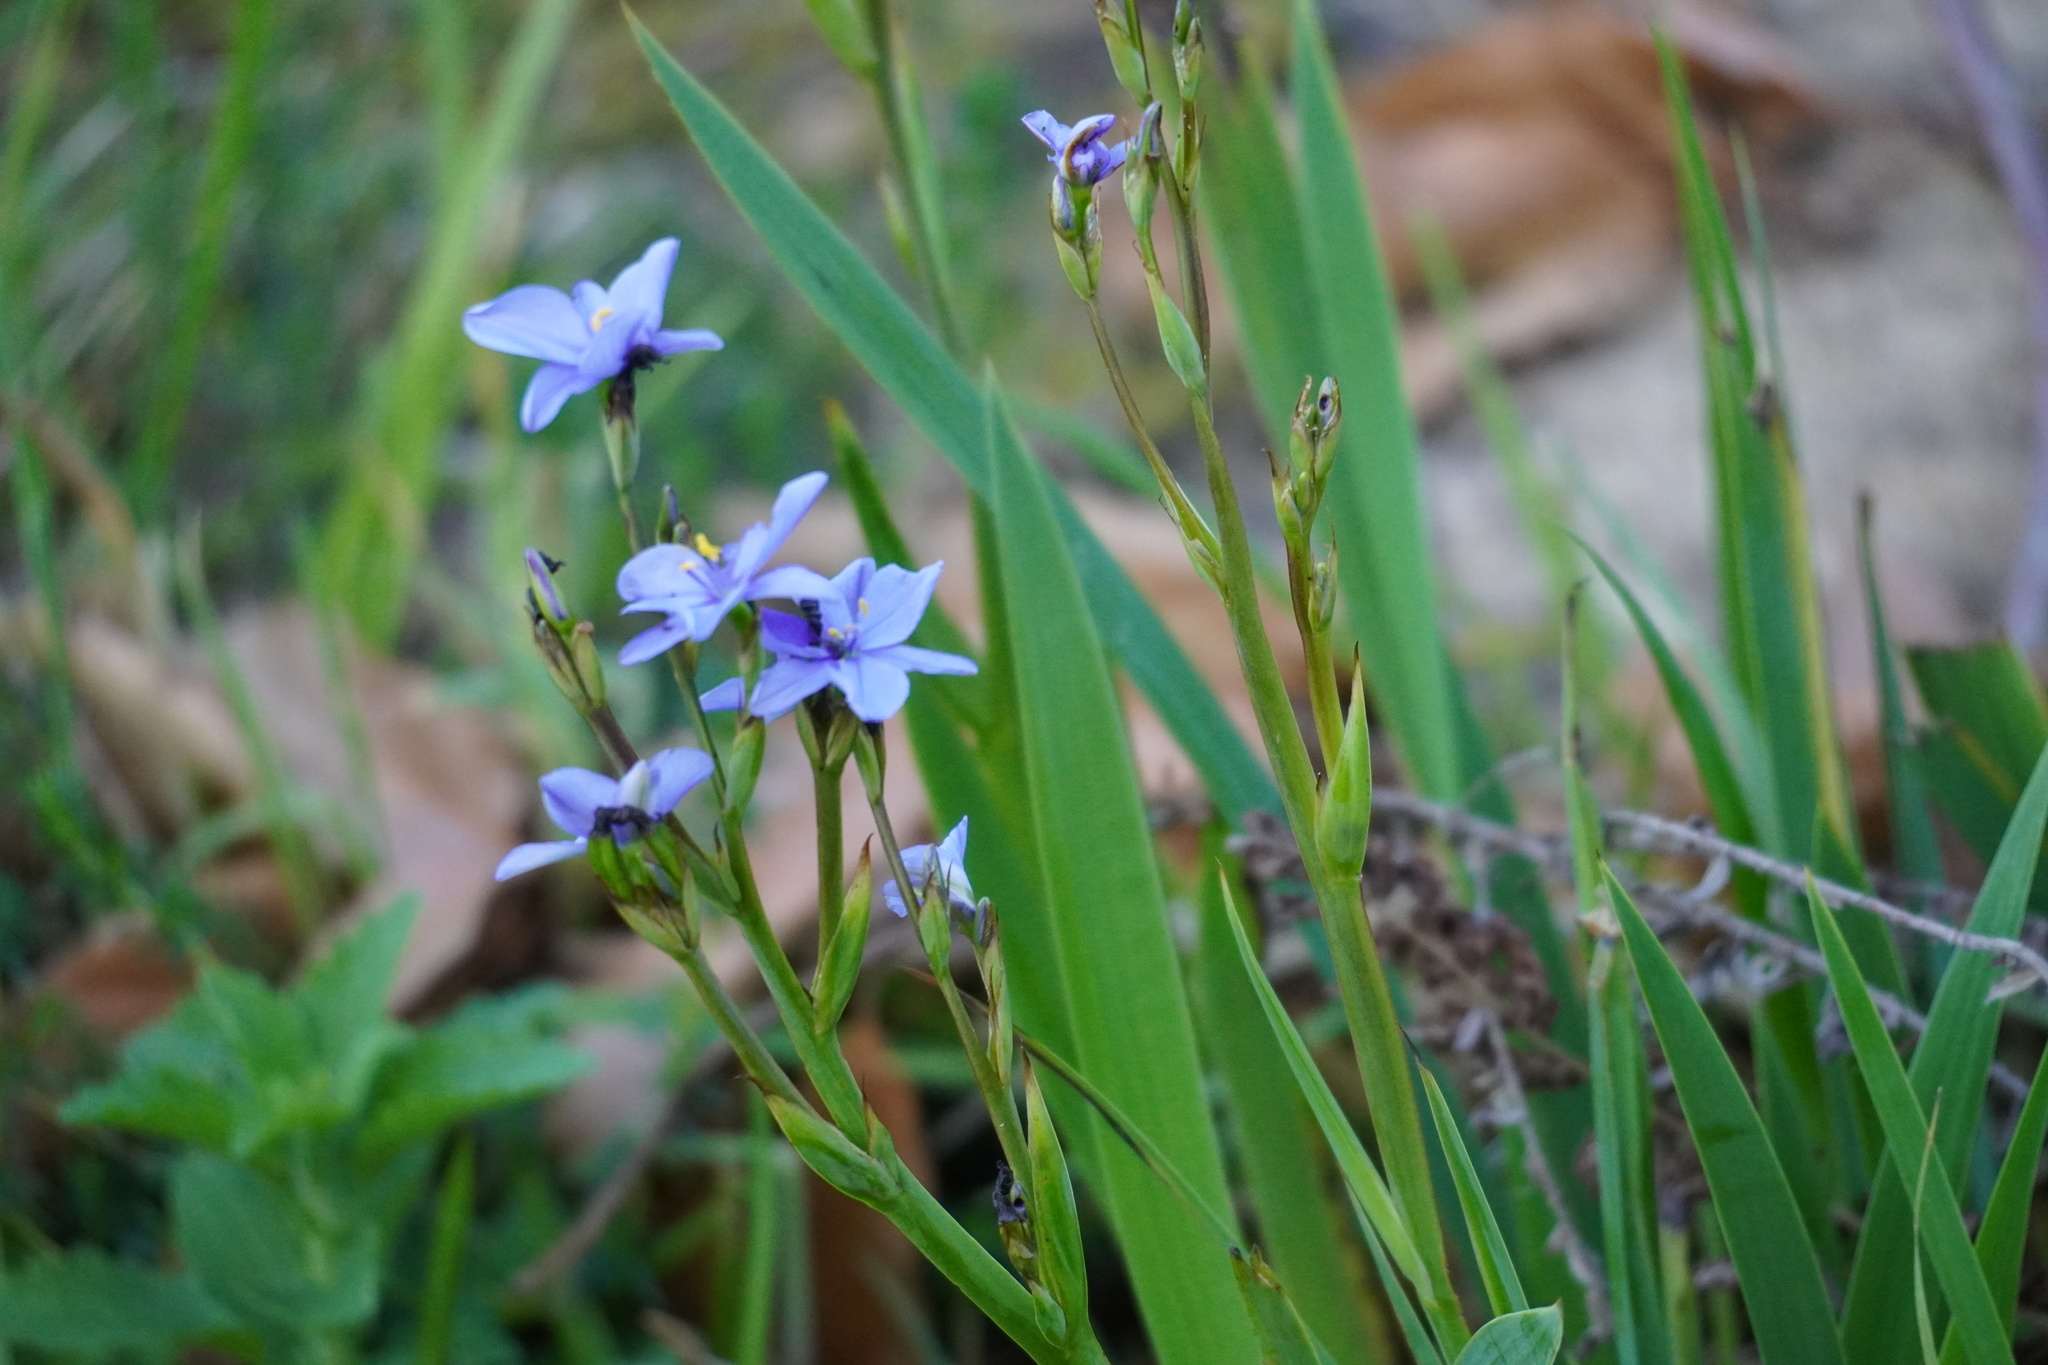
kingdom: Plantae
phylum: Tracheophyta
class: Liliopsida
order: Asparagales
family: Iridaceae
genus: Aristea
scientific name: Aristea ecklonii
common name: Blue corn-lily
